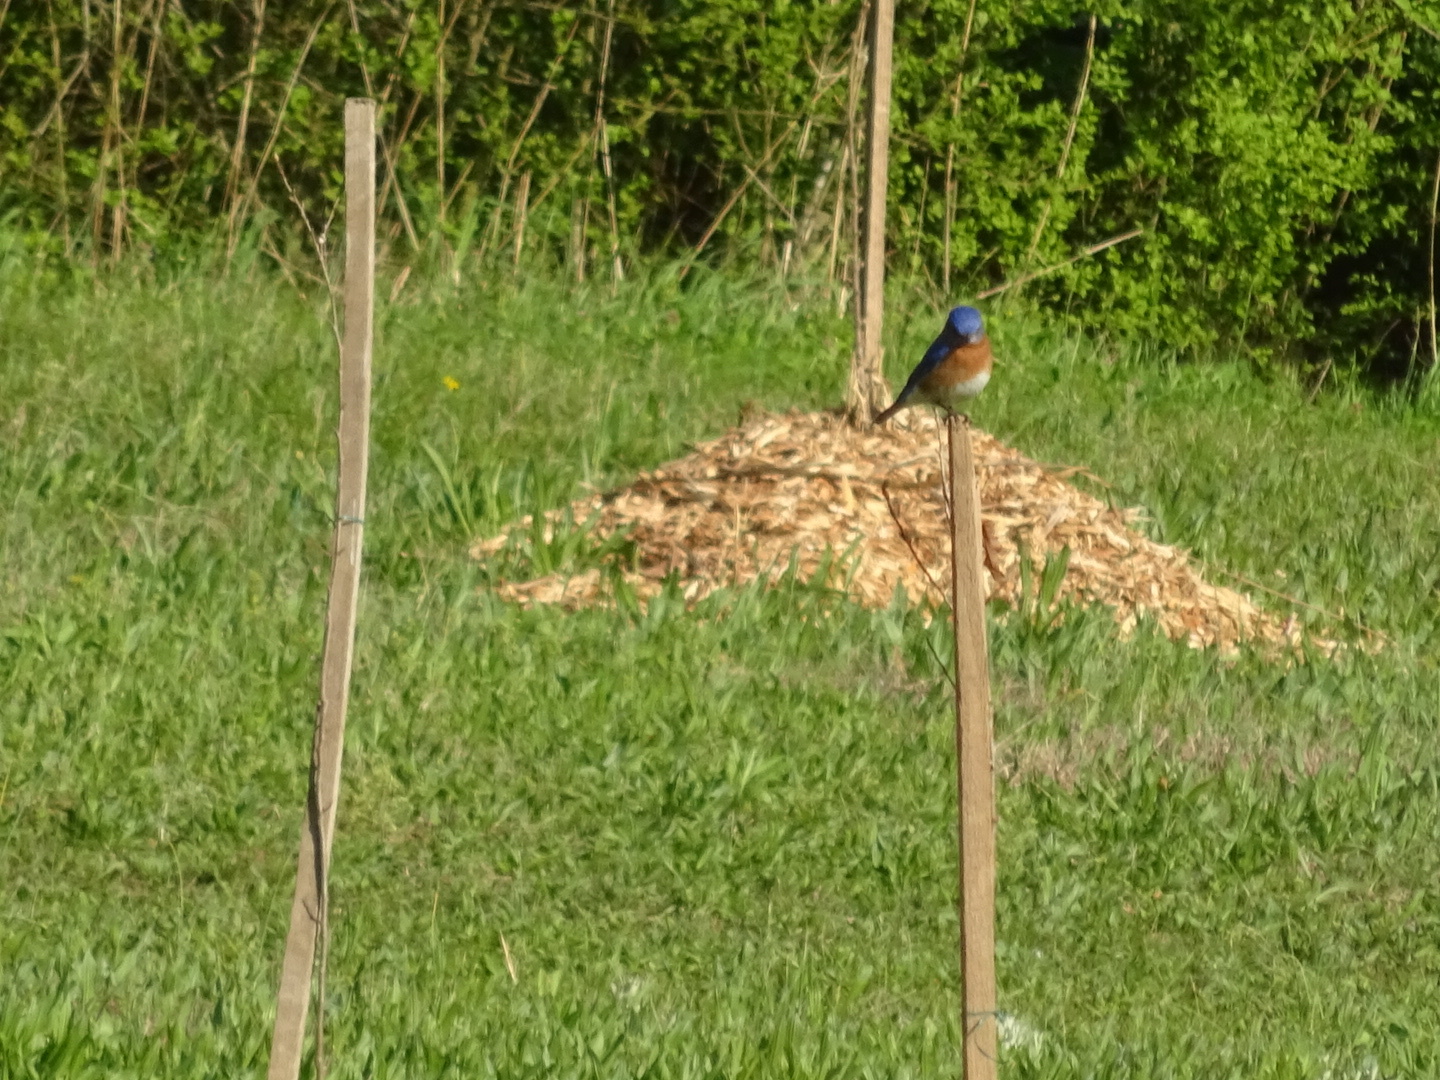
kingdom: Animalia
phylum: Chordata
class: Aves
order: Passeriformes
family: Turdidae
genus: Sialia
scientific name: Sialia sialis
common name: Eastern bluebird
